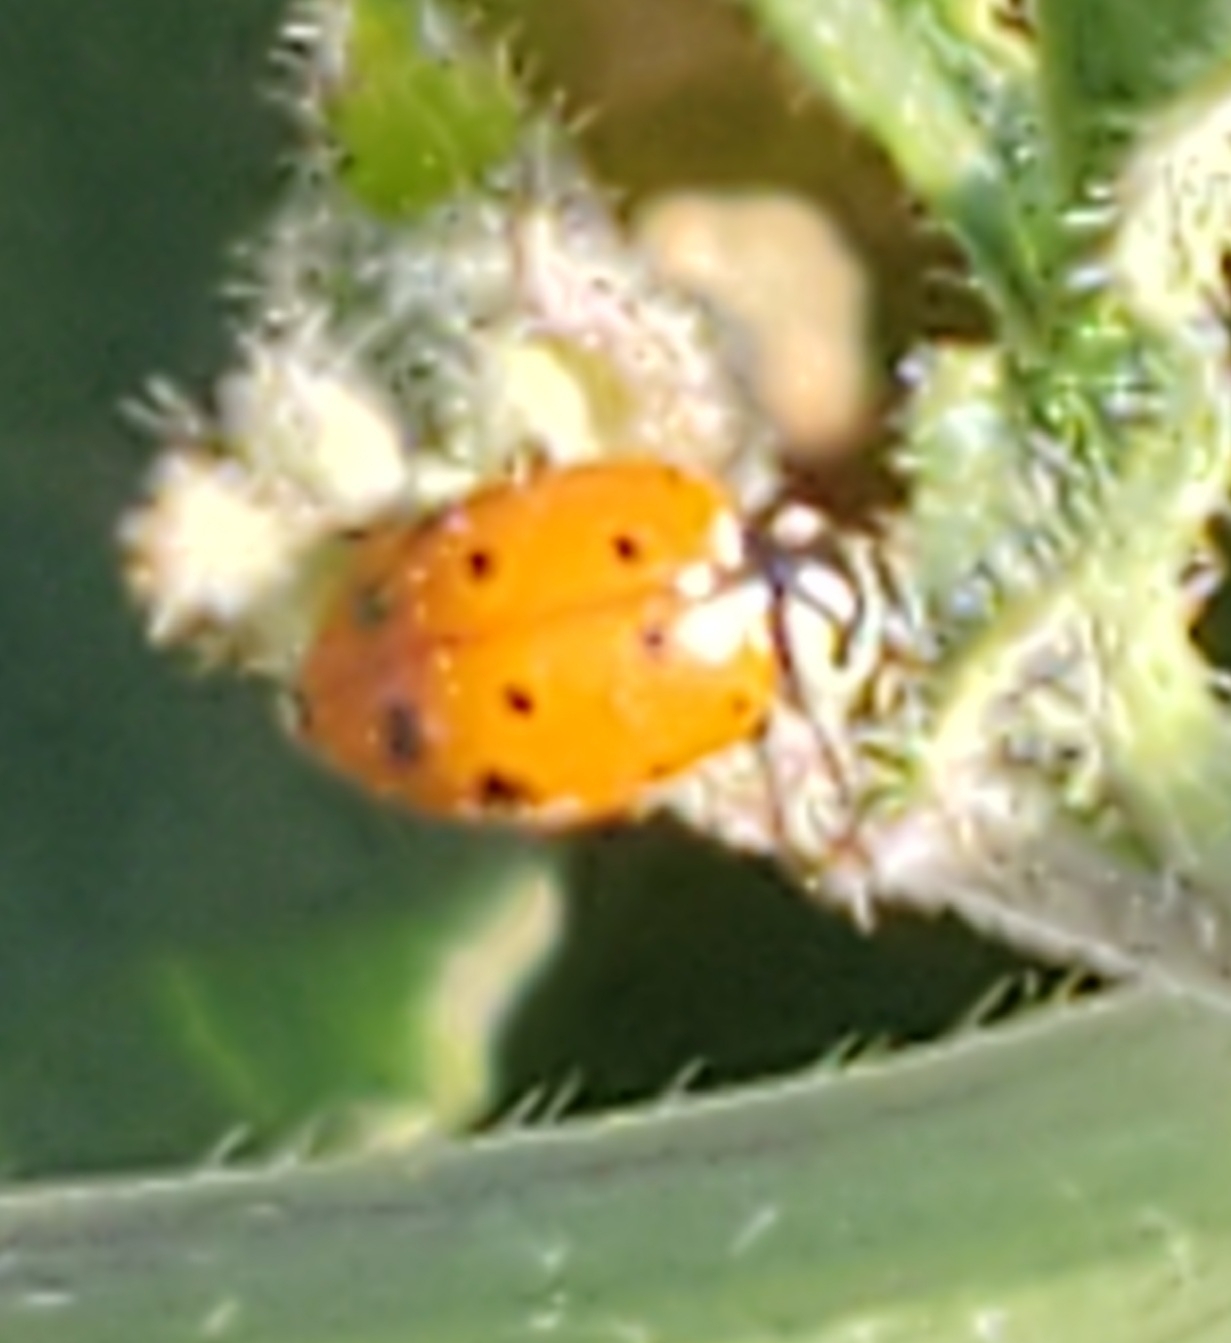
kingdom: Animalia
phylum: Arthropoda
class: Insecta
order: Coleoptera
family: Coccinellidae
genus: Hippodamia
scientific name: Hippodamia convergens
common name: Convergent lady beetle
